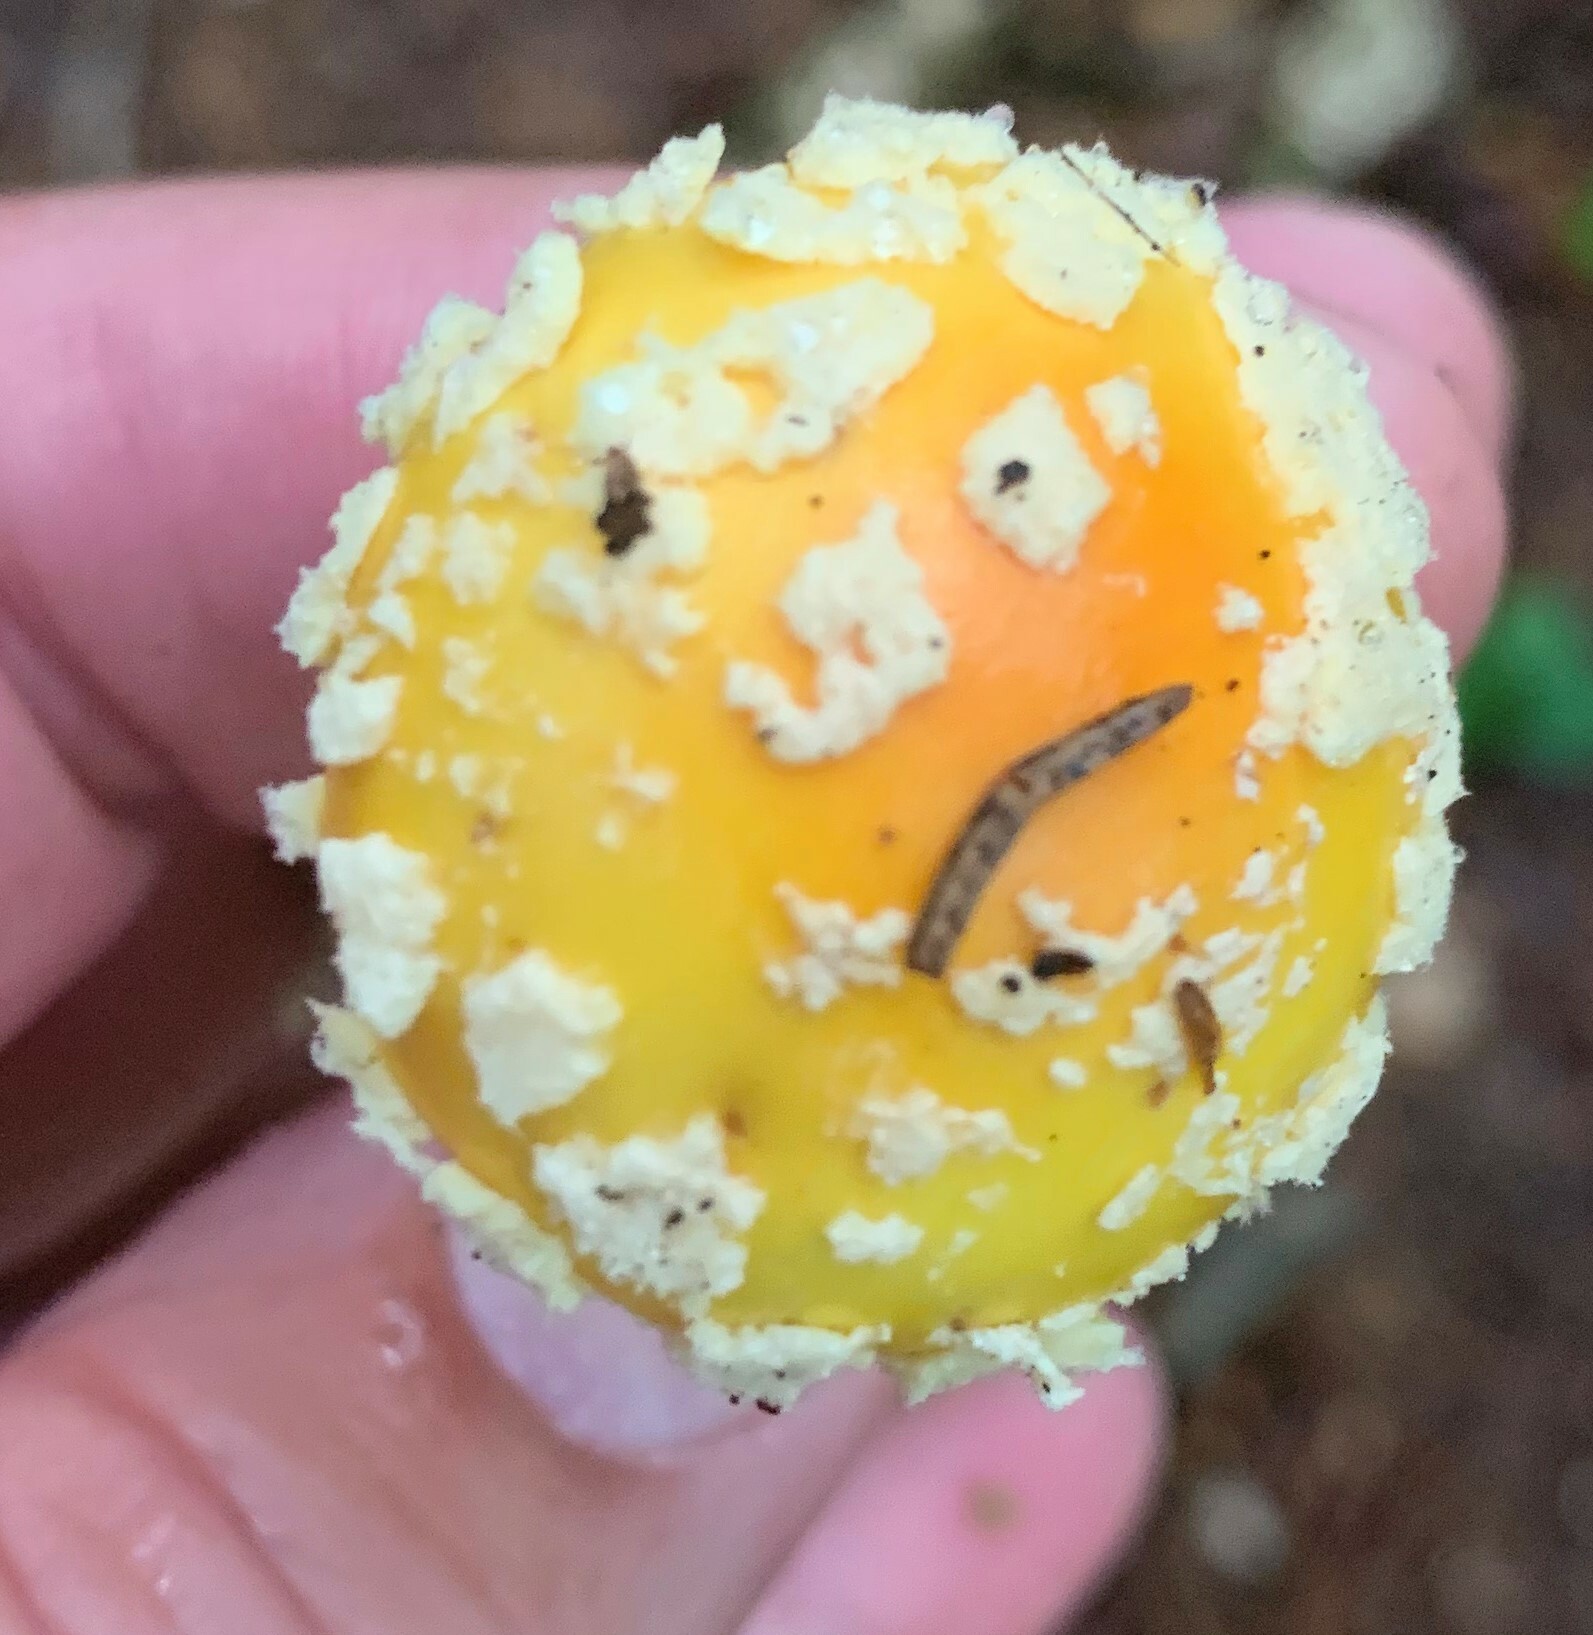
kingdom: Fungi
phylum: Basidiomycota
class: Agaricomycetes
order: Agaricales
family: Amanitaceae
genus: Amanita
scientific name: Amanita muscaria
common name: Fly agaric
